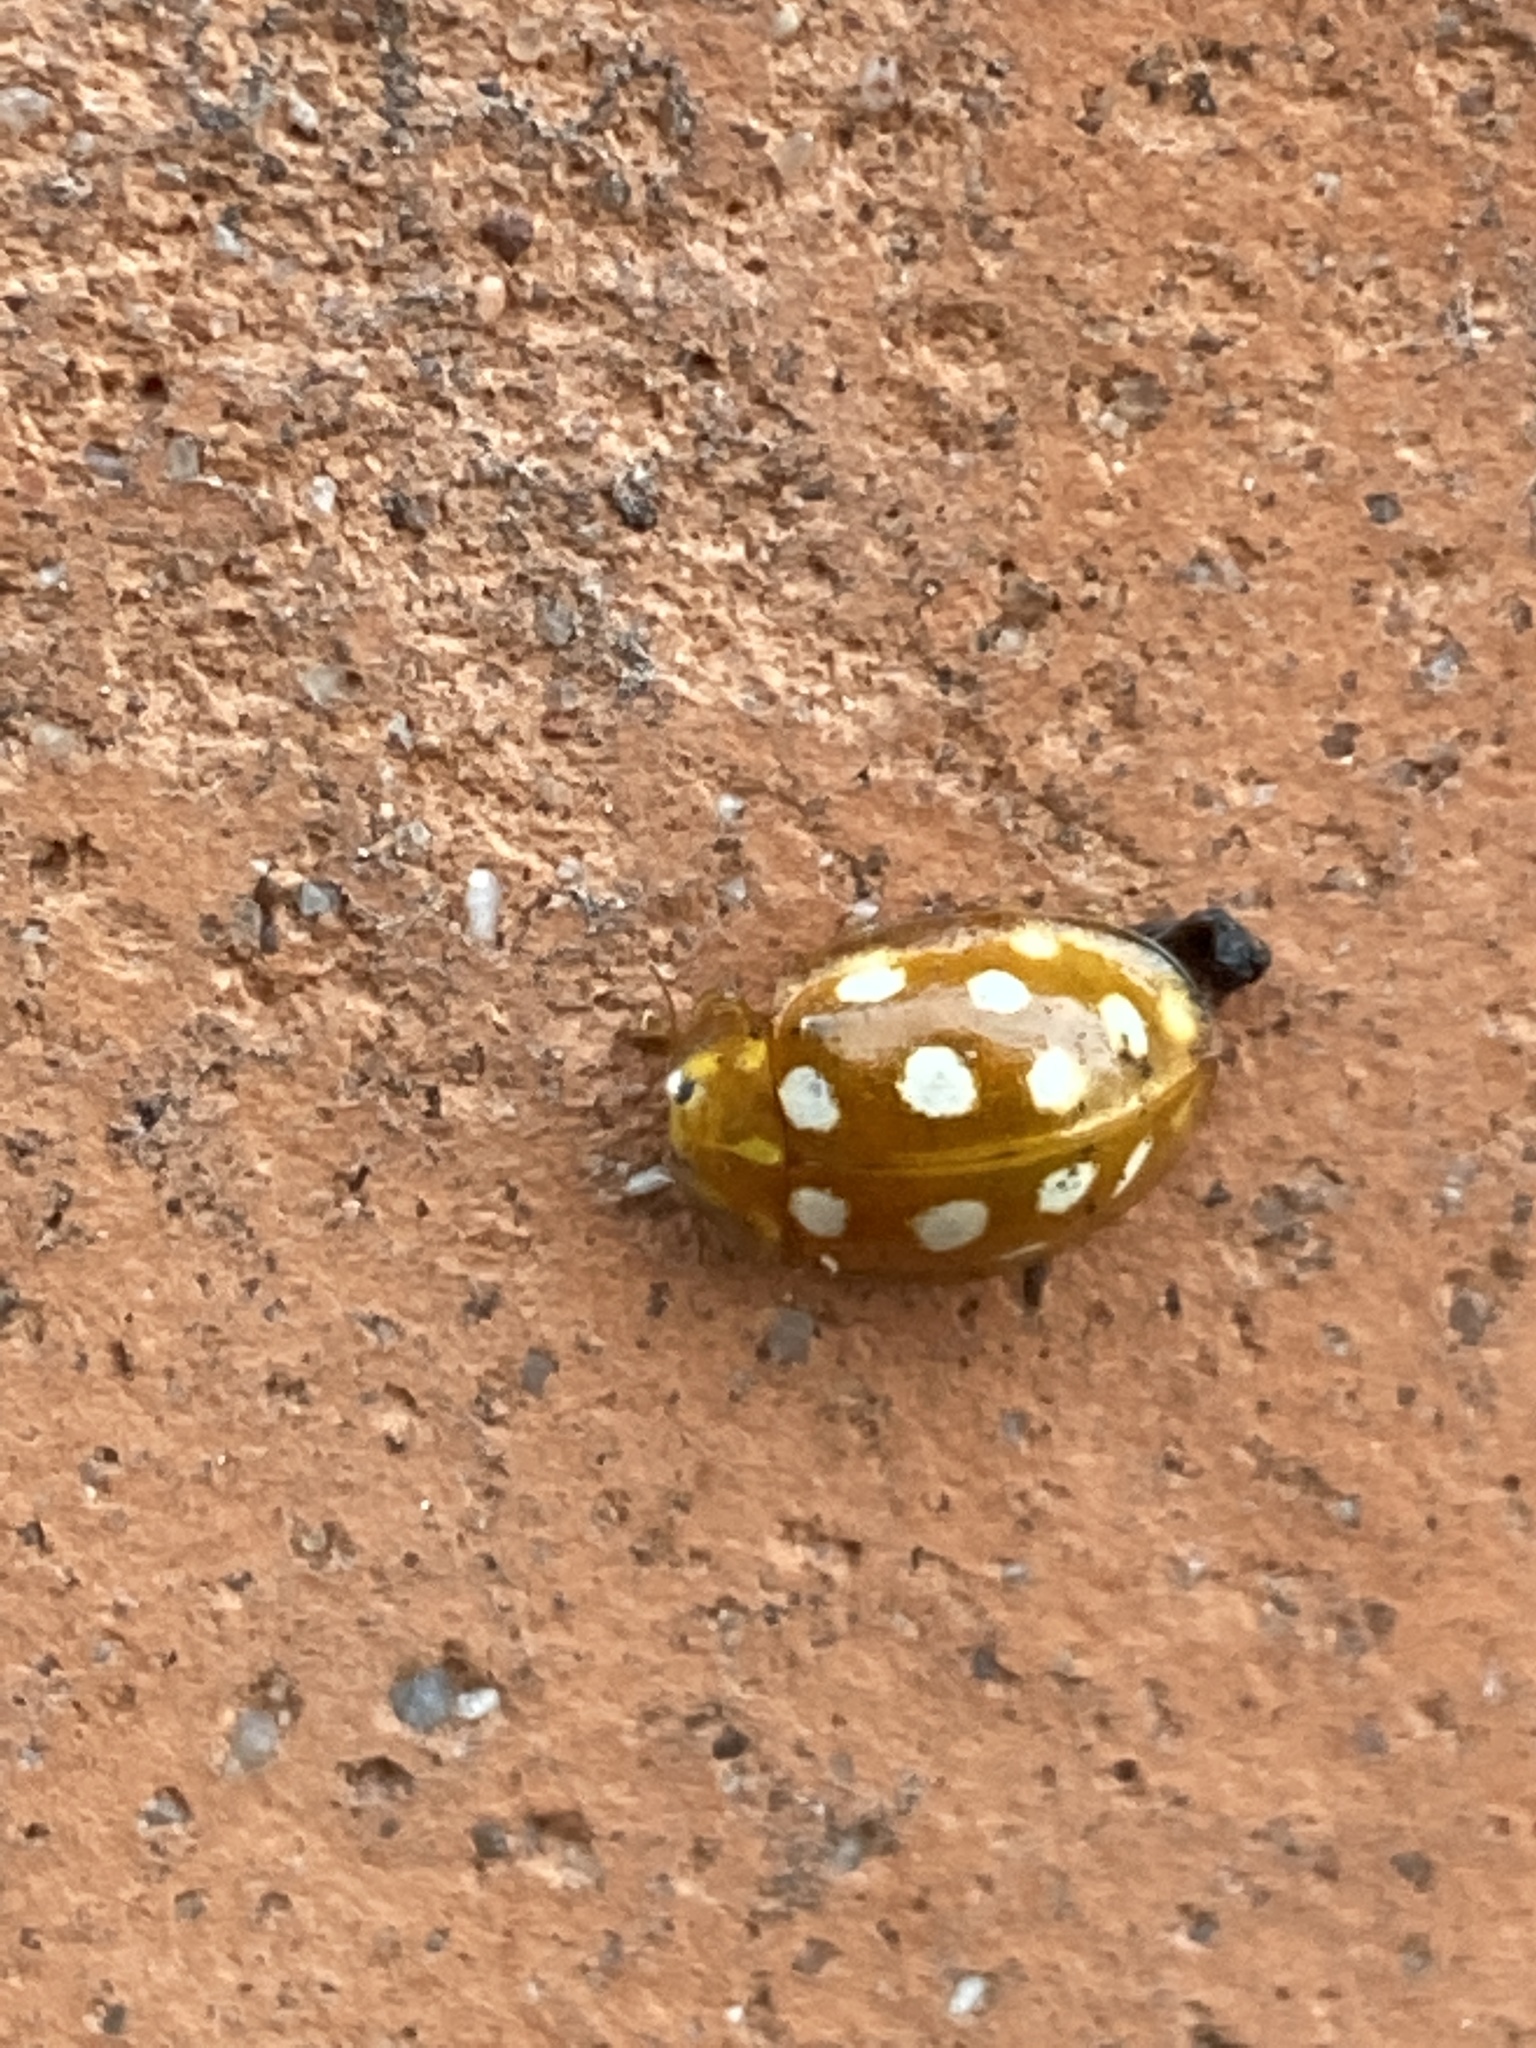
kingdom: Animalia
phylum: Arthropoda
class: Insecta
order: Coleoptera
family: Coccinellidae
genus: Halyzia
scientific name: Halyzia sedecimguttata
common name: Orange ladybird
